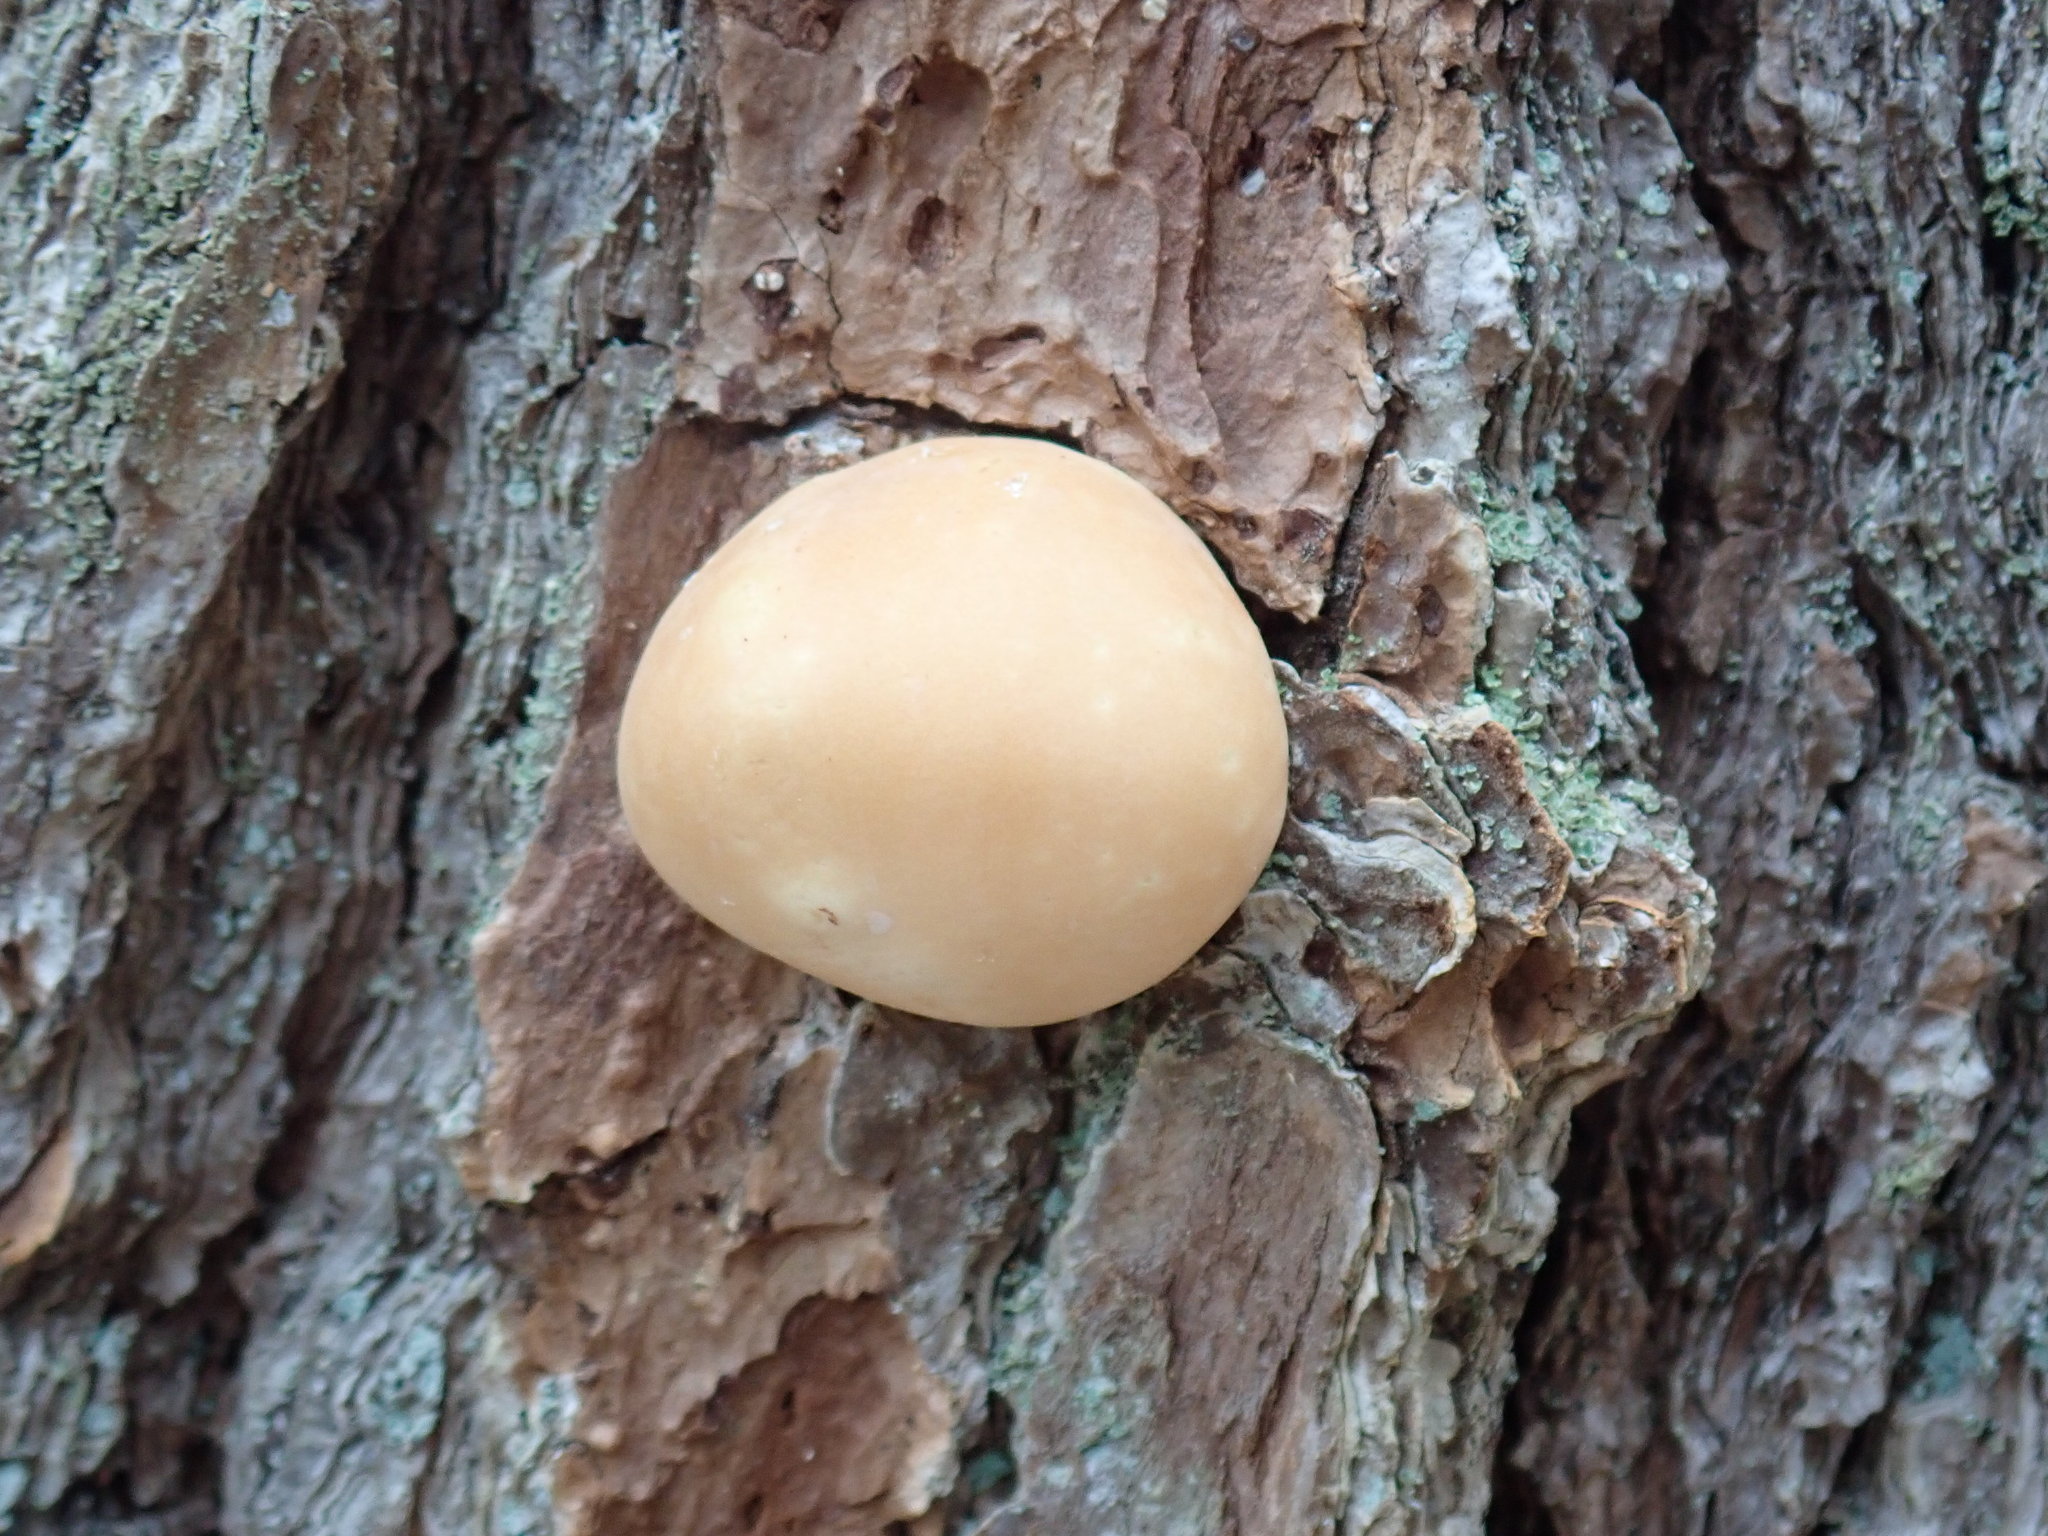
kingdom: Fungi
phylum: Basidiomycota
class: Agaricomycetes
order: Polyporales
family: Polyporaceae
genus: Cryptoporus
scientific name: Cryptoporus volvatus
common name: Veiled polypore
